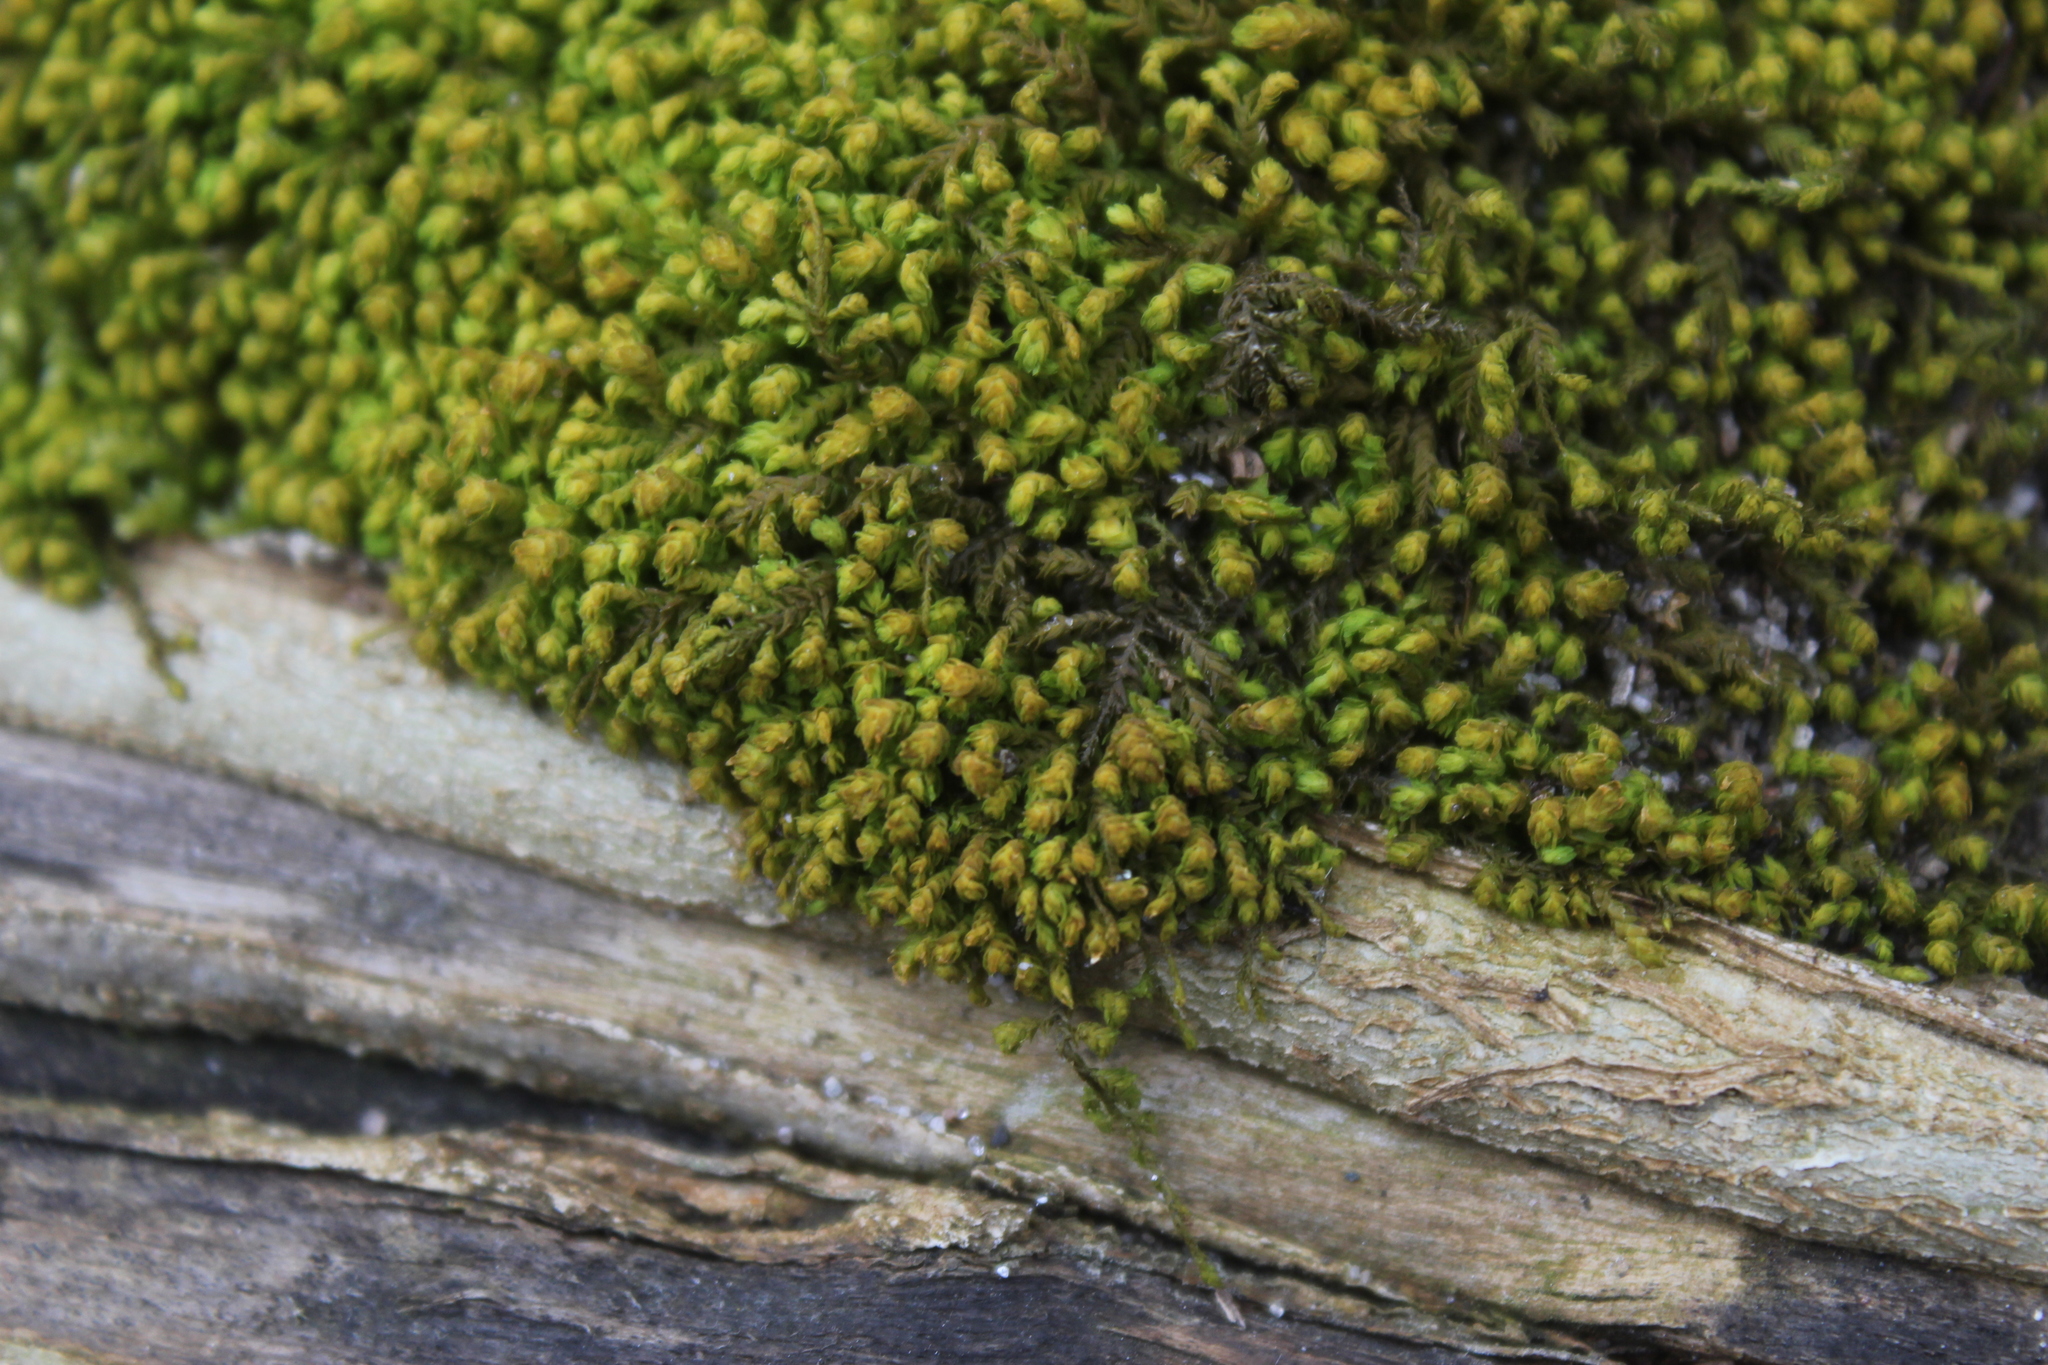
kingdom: Plantae
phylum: Bryophyta
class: Bryopsida
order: Hypnales
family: Neckeraceae
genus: Pseudanomodon
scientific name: Pseudanomodon attenuatus
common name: Tree-skirt moss
